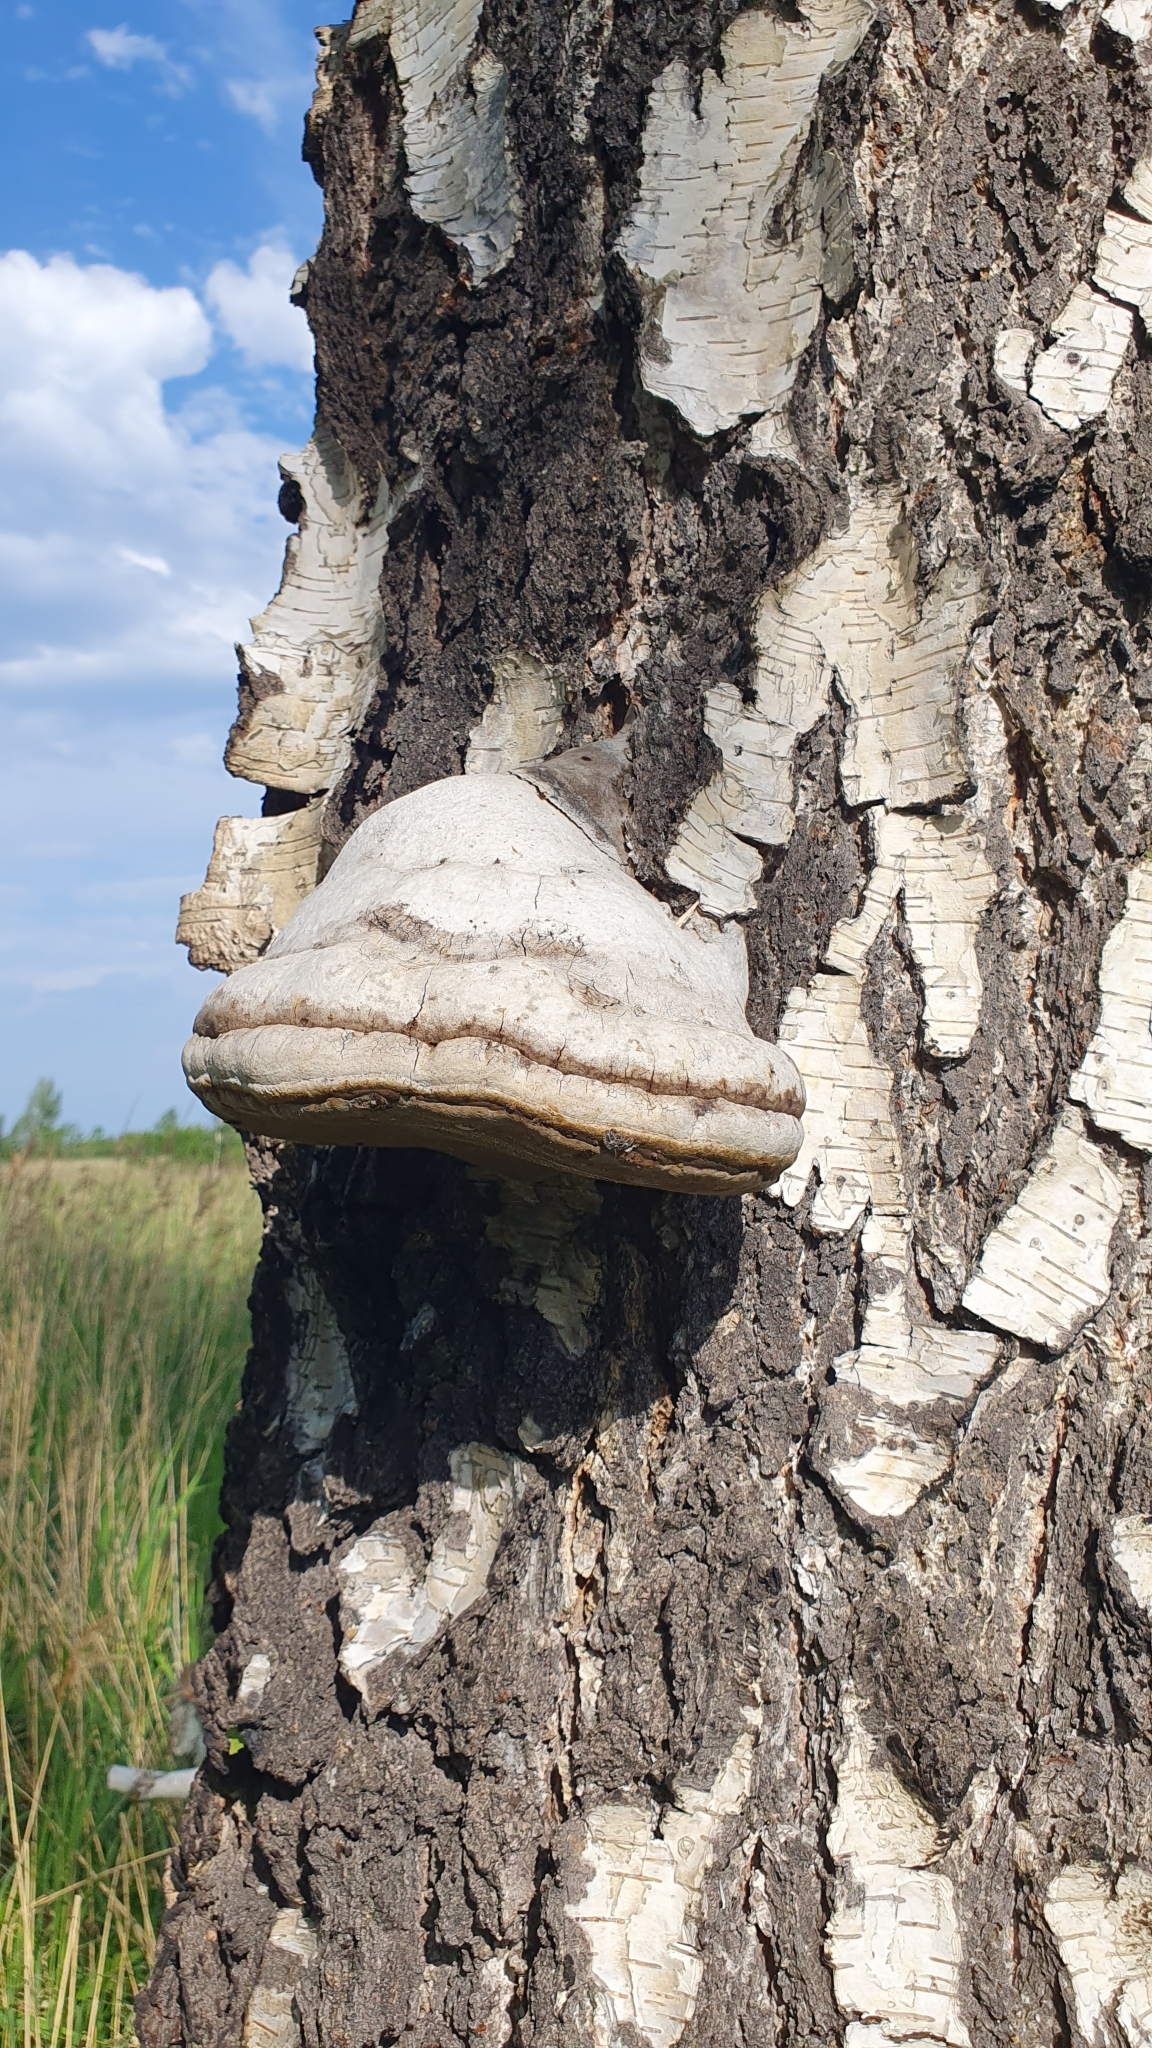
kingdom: Fungi
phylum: Basidiomycota
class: Agaricomycetes
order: Polyporales
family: Polyporaceae
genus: Fomes
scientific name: Fomes fomentarius
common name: Hoof fungus
